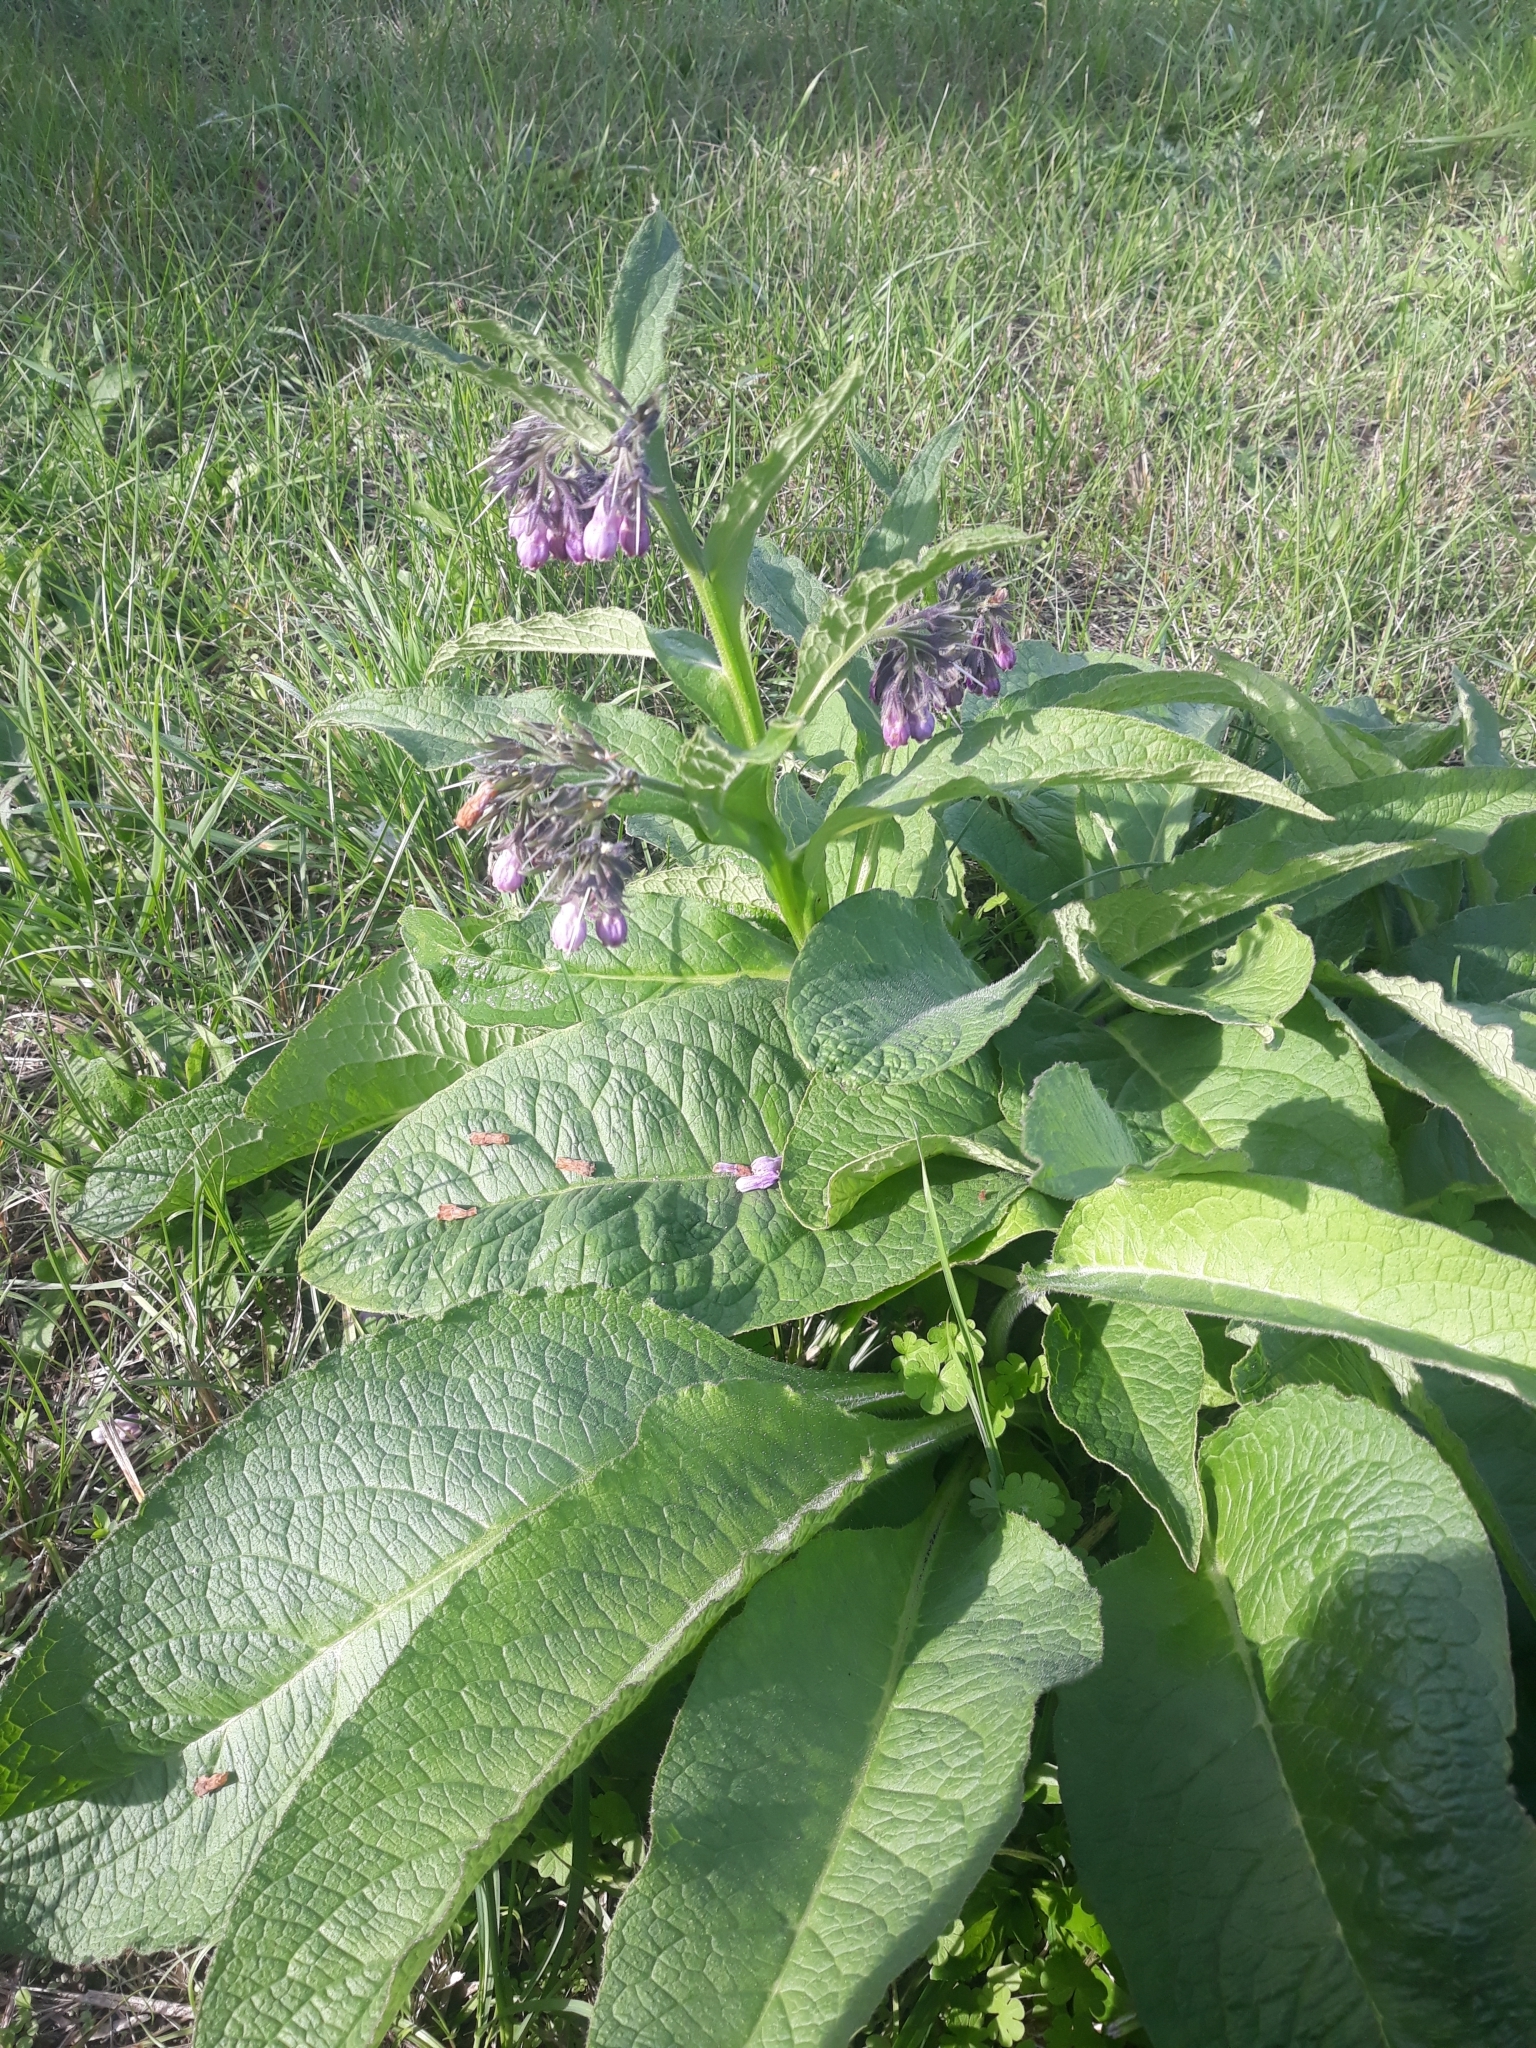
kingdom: Plantae
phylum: Tracheophyta
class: Magnoliopsida
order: Boraginales
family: Boraginaceae
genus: Symphytum
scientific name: Symphytum officinale
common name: Common comfrey
